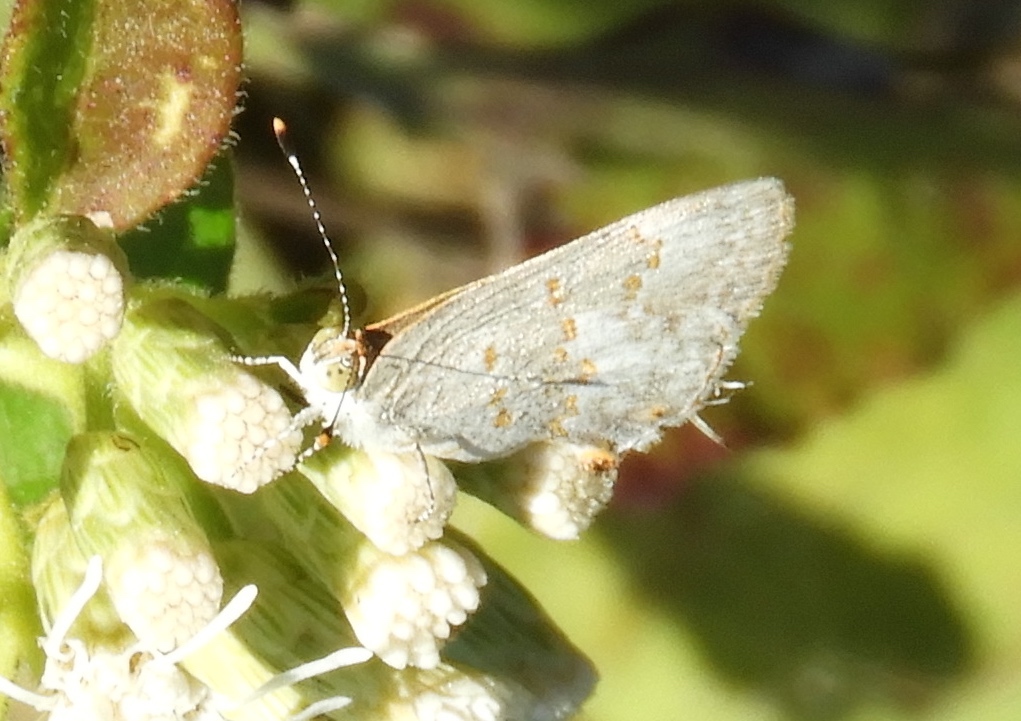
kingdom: Animalia
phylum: Arthropoda
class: Insecta
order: Lepidoptera
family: Lycaenidae
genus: Ministrymon
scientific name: Ministrymon clytie
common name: Clytie ministreak
